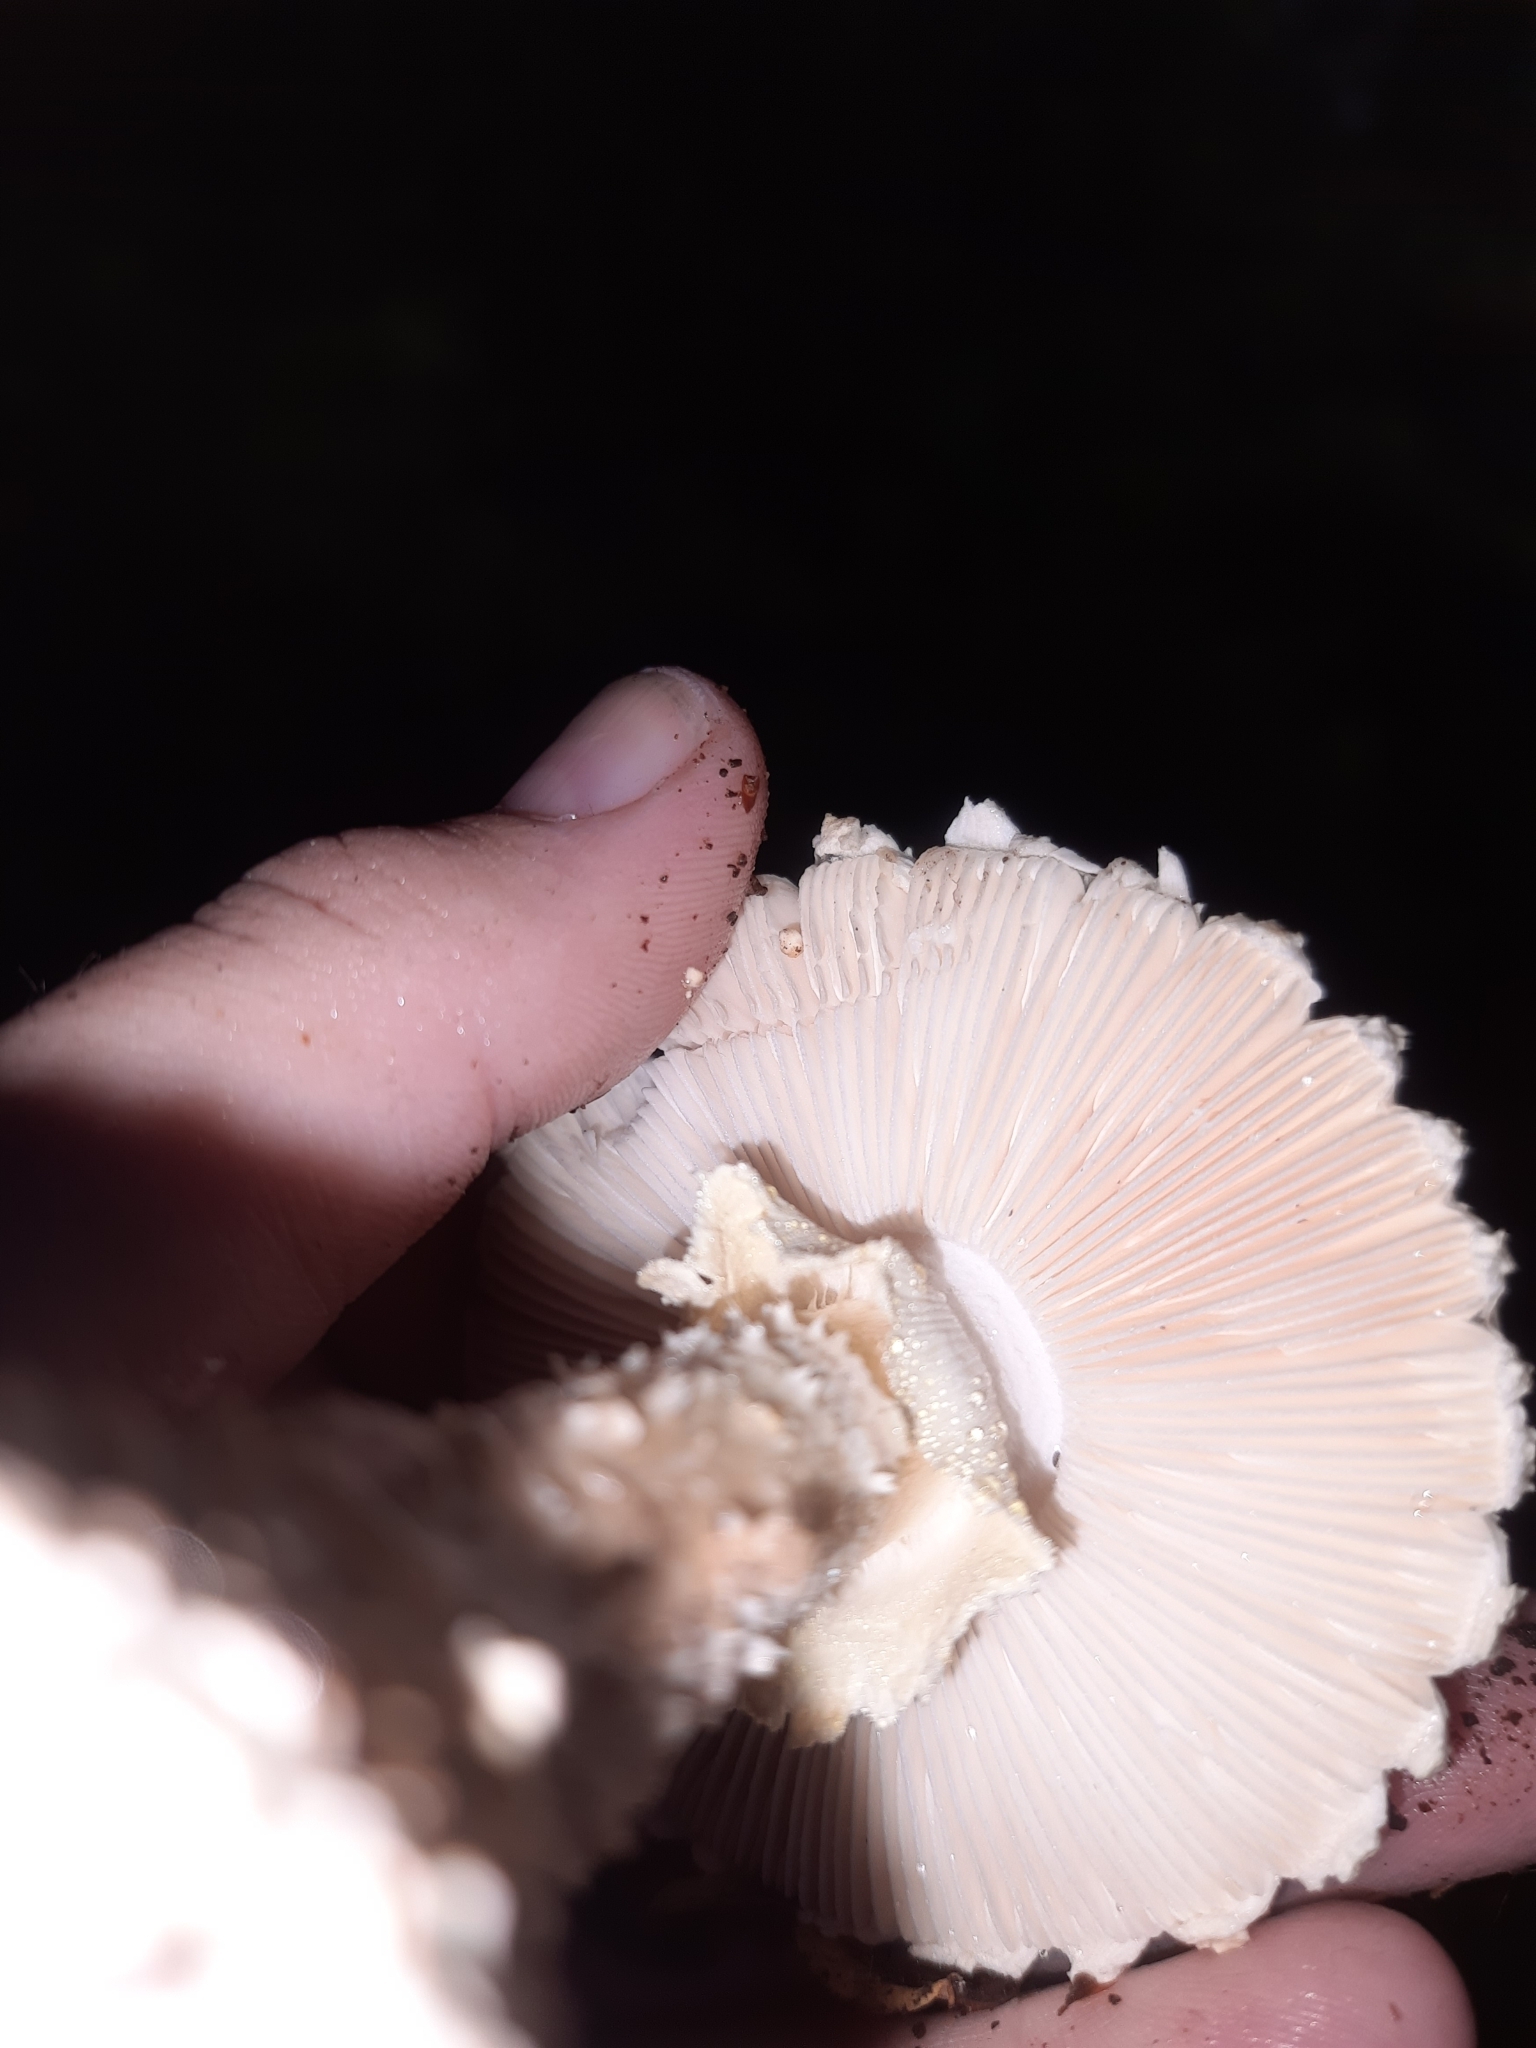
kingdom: Fungi
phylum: Basidiomycota
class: Agaricomycetes
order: Agaricales
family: Amanitaceae
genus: Amanita
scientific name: Amanita pareparina
